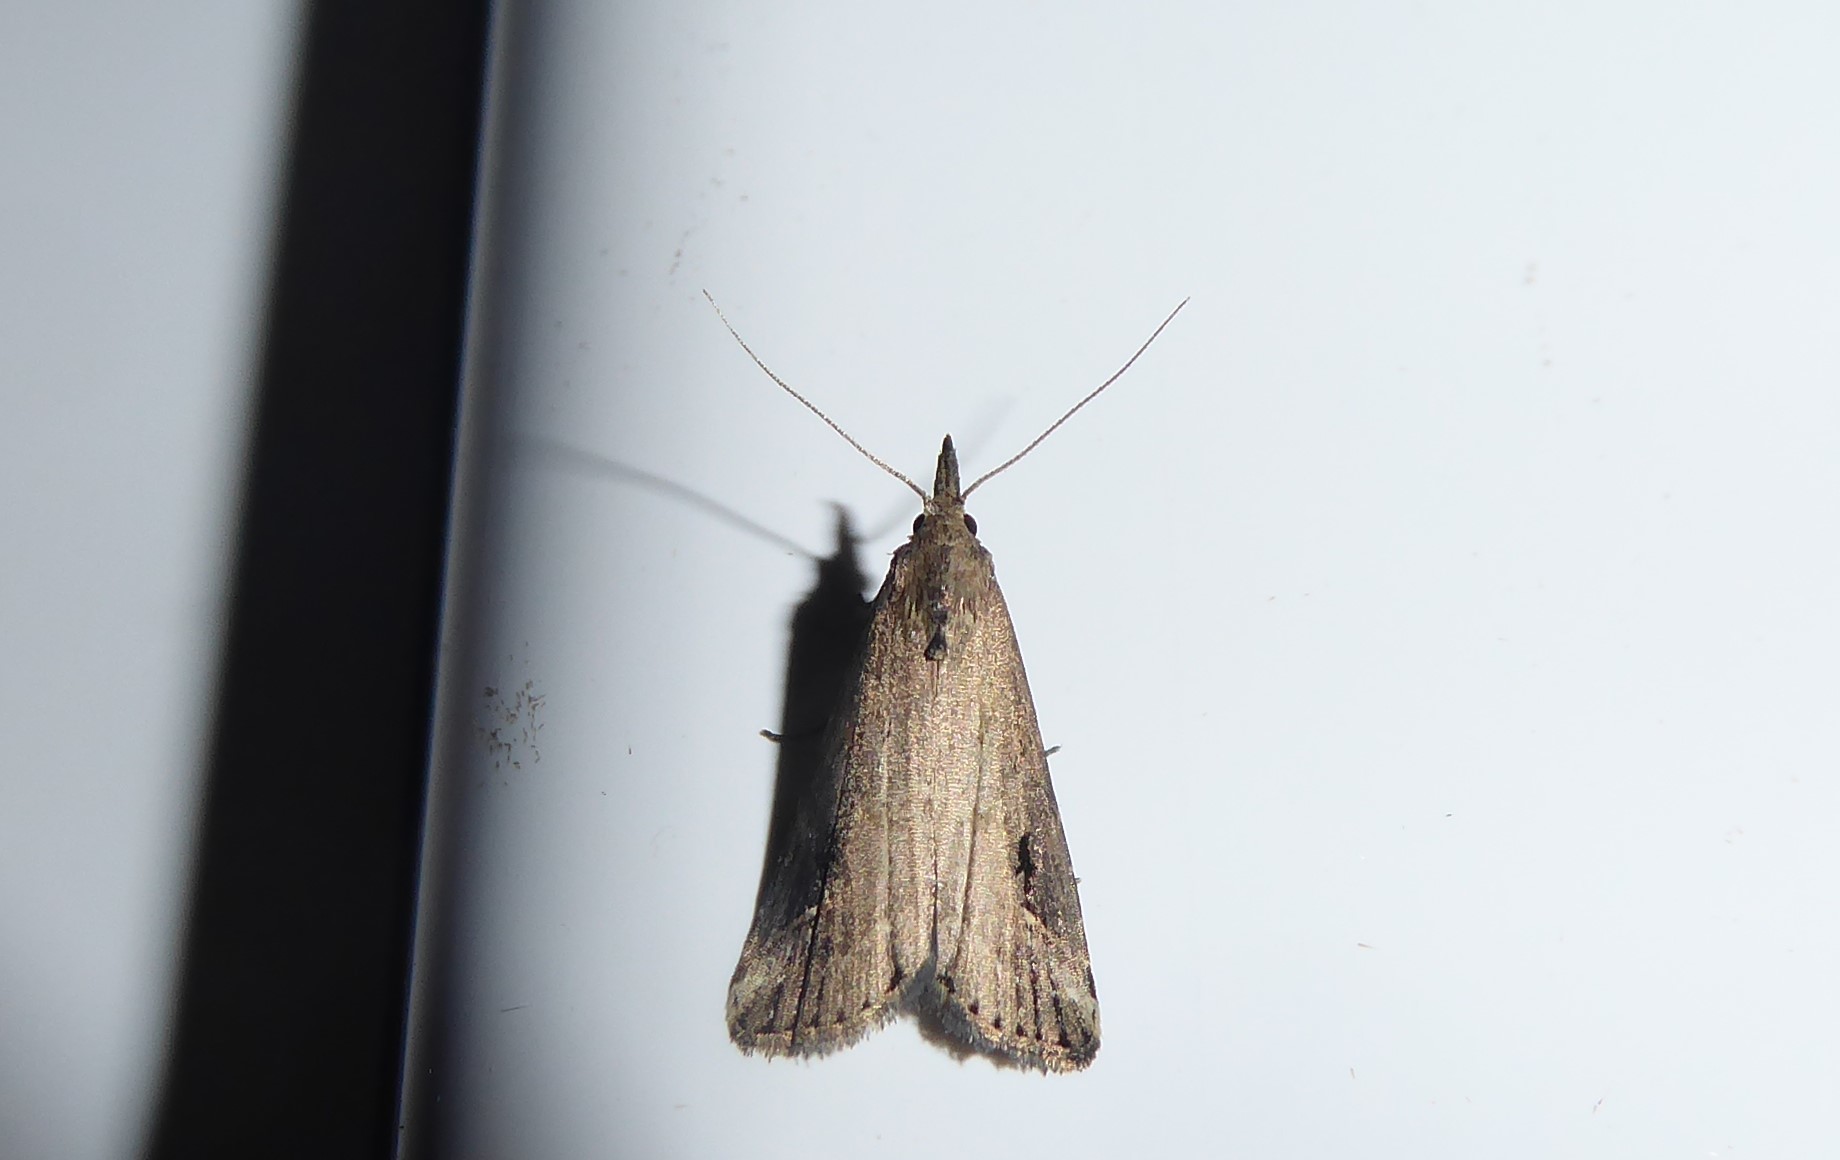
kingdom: Animalia
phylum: Arthropoda
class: Insecta
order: Lepidoptera
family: Erebidae
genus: Schrankia
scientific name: Schrankia costaestrigalis
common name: Pinion-streaked snout
